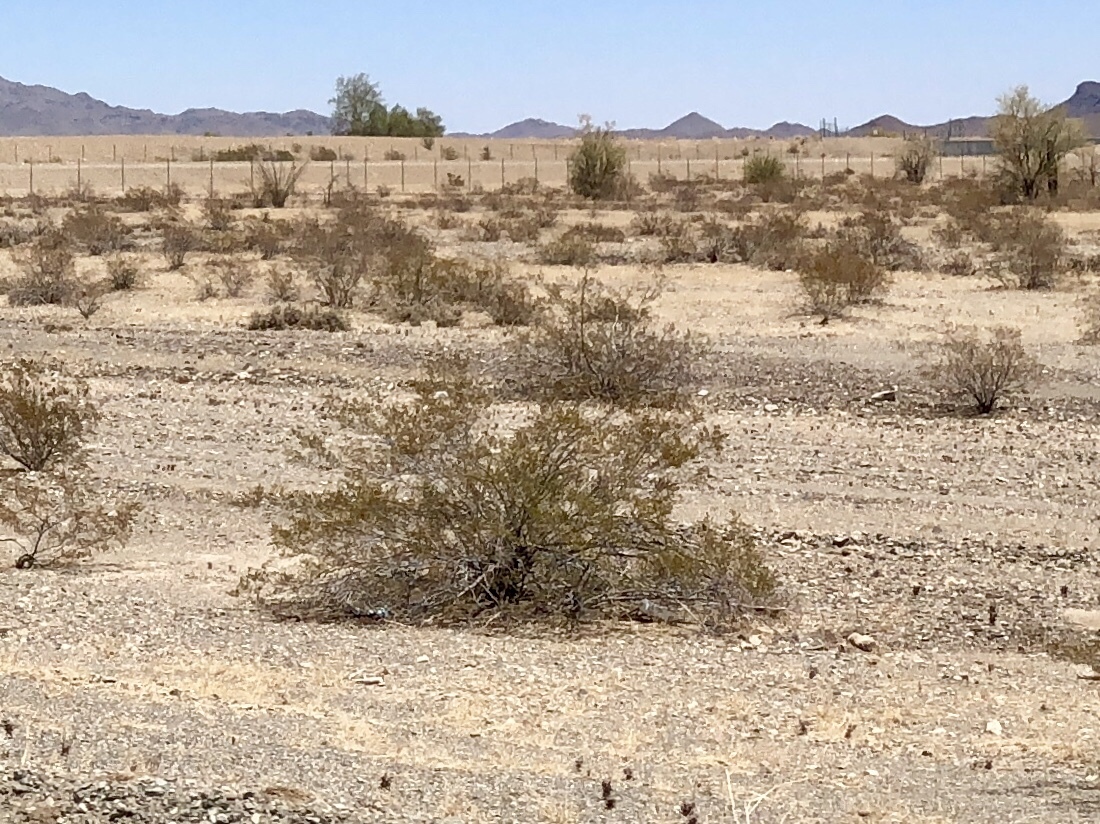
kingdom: Plantae
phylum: Tracheophyta
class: Magnoliopsida
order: Zygophyllales
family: Zygophyllaceae
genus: Larrea
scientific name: Larrea tridentata
